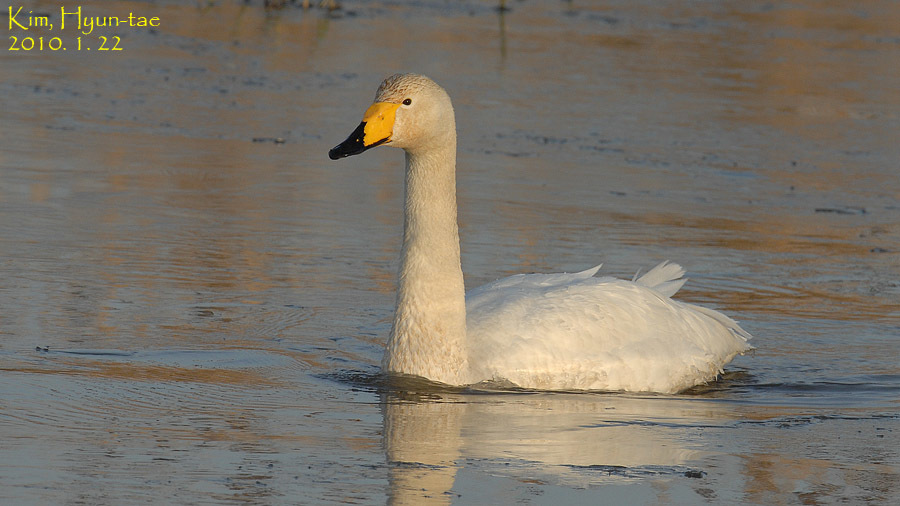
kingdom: Animalia
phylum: Chordata
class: Aves
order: Anseriformes
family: Anatidae
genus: Cygnus
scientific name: Cygnus cygnus
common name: Whooper swan
